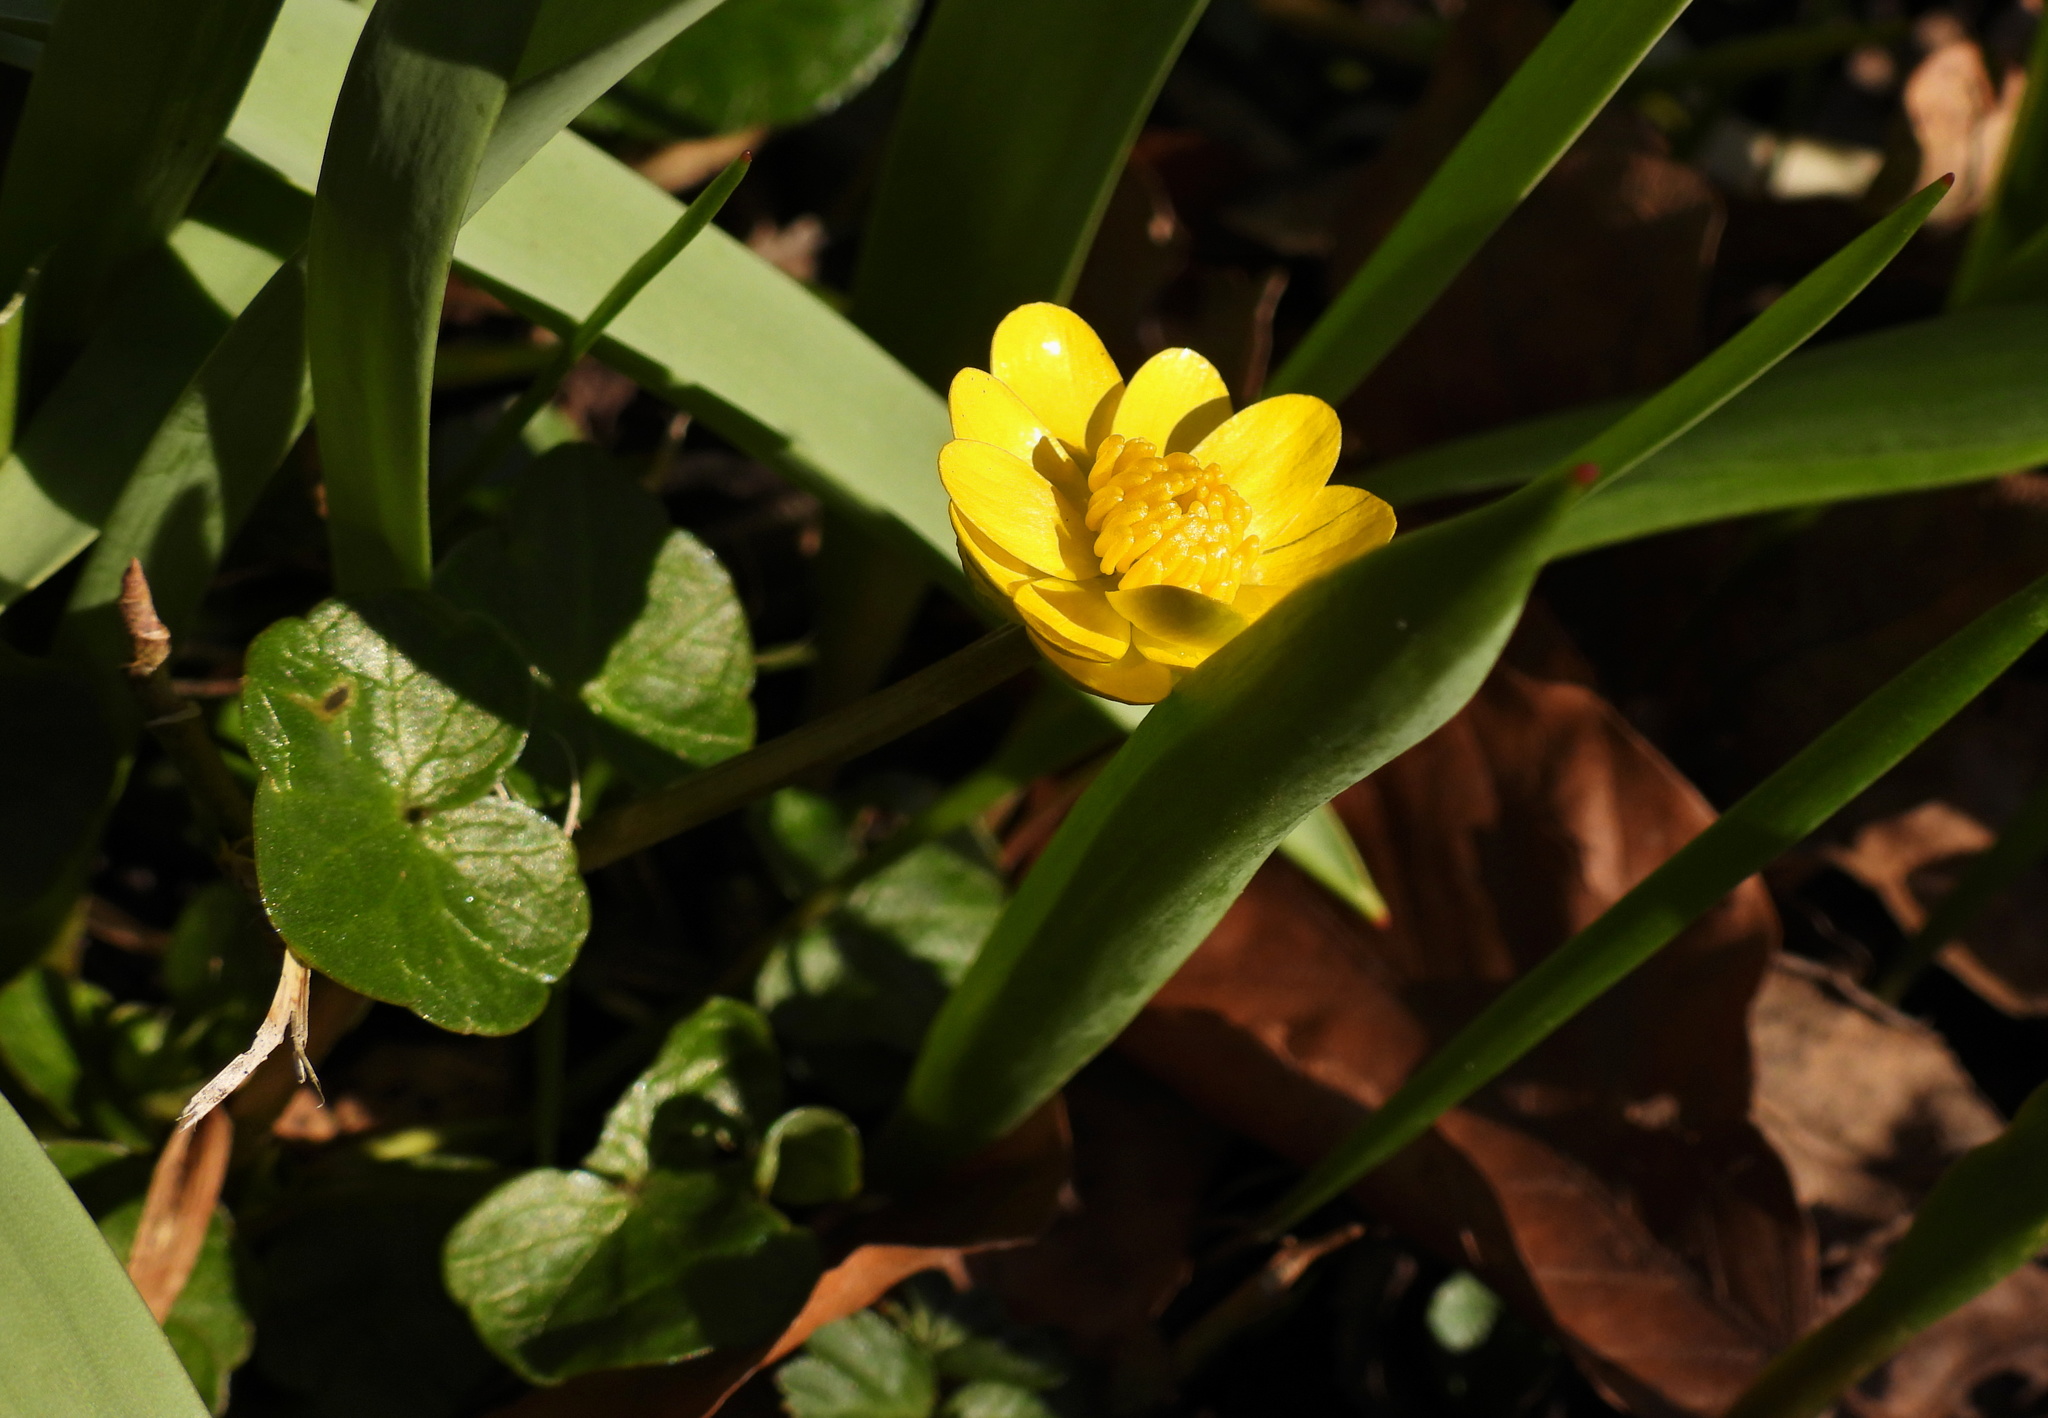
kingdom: Plantae
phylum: Tracheophyta
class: Magnoliopsida
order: Ranunculales
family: Ranunculaceae
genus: Ficaria
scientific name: Ficaria verna
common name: Lesser celandine
